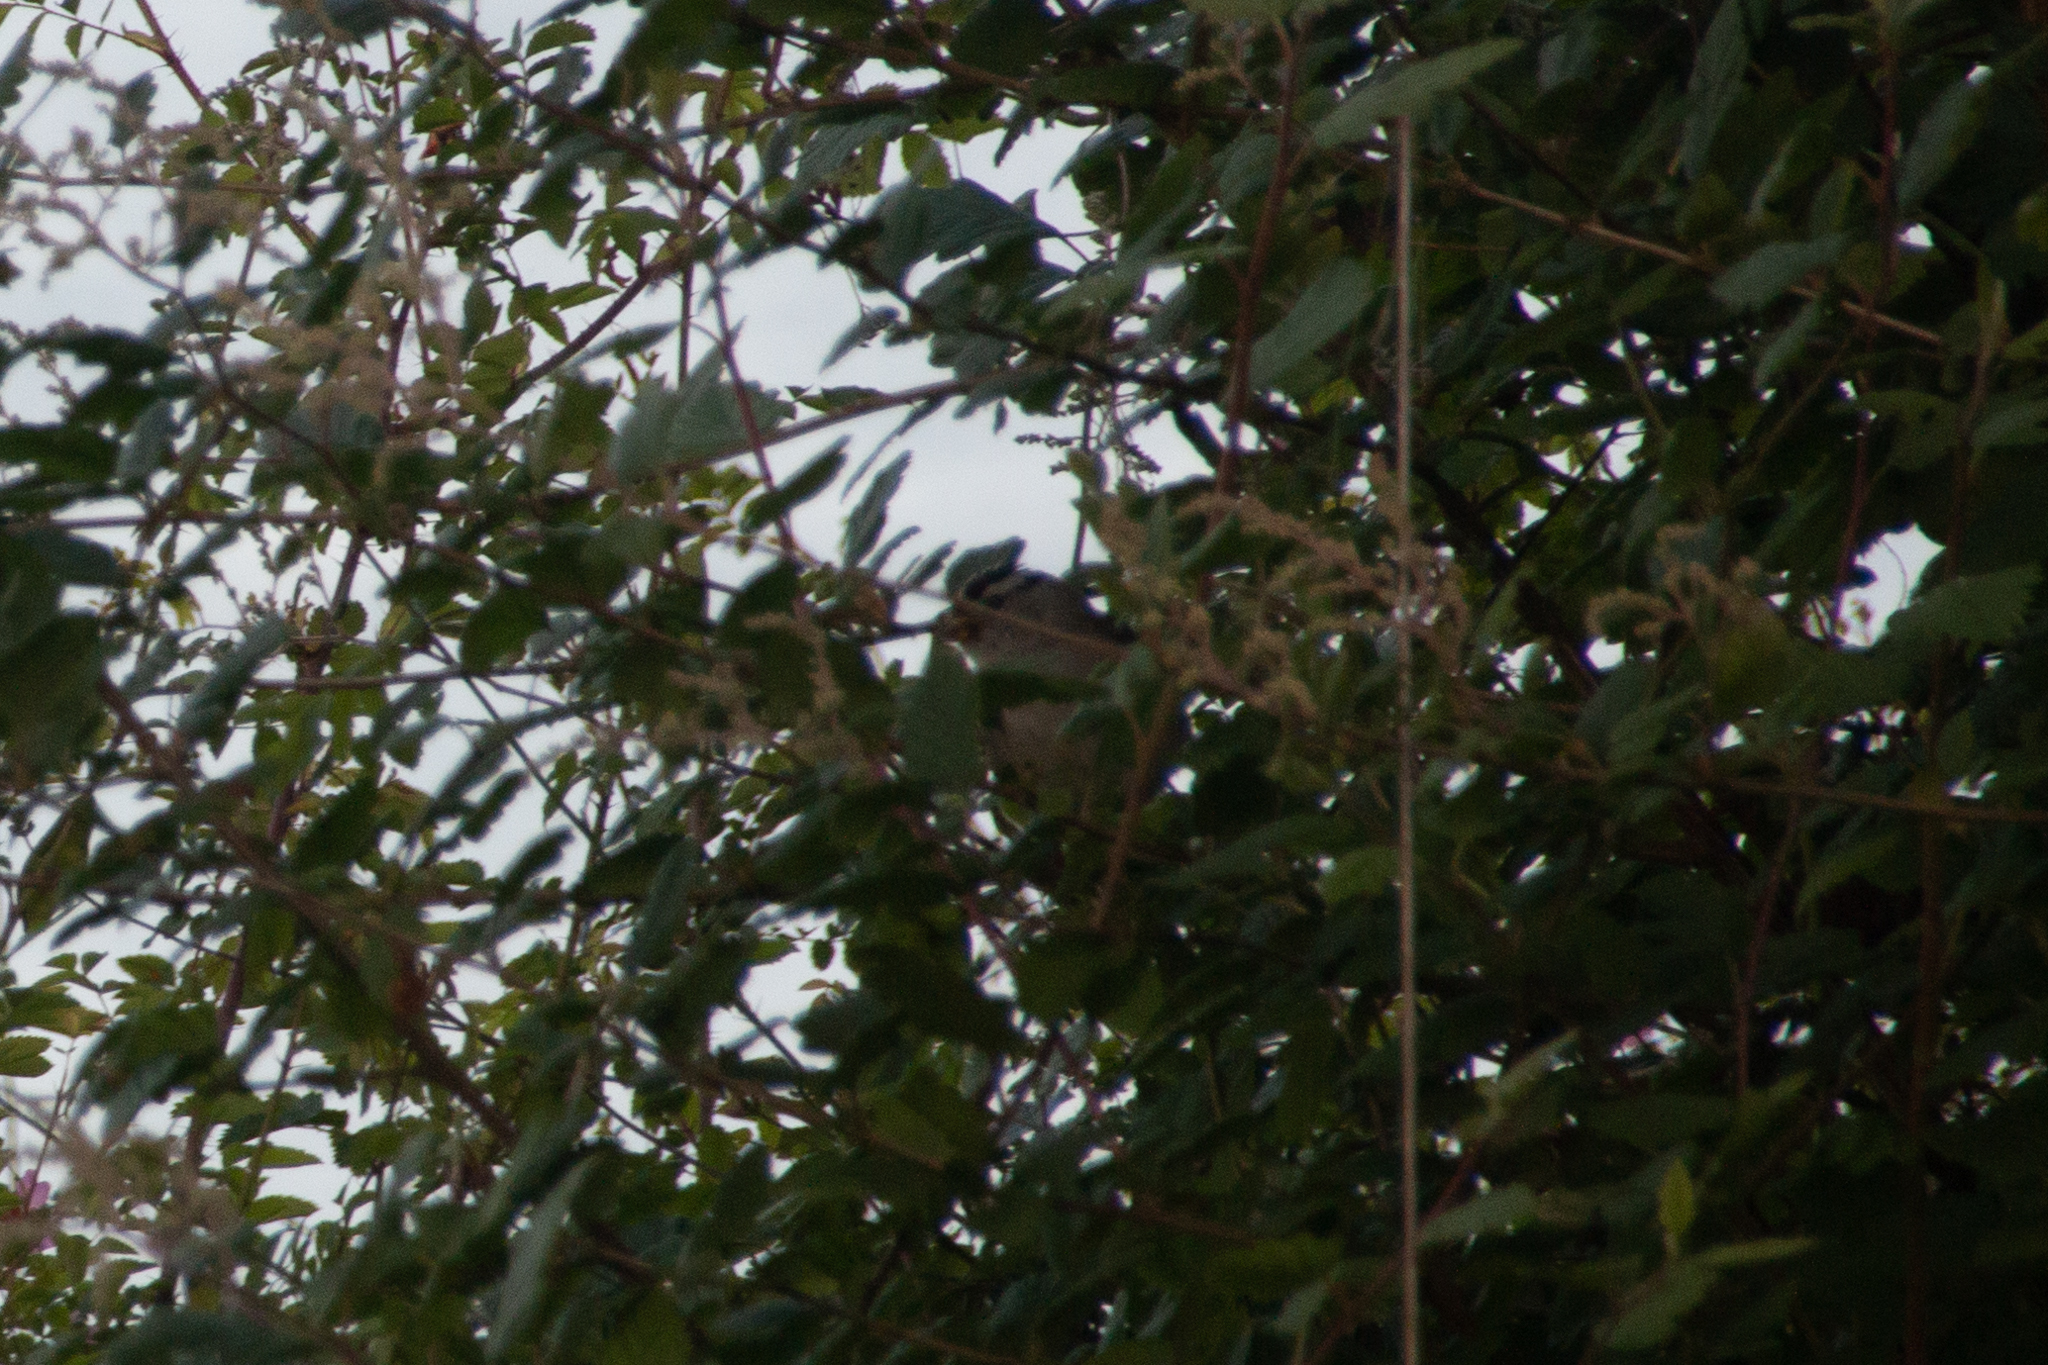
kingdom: Animalia
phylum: Chordata
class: Aves
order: Passeriformes
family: Passerellidae
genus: Zonotrichia
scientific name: Zonotrichia leucophrys
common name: White-crowned sparrow
